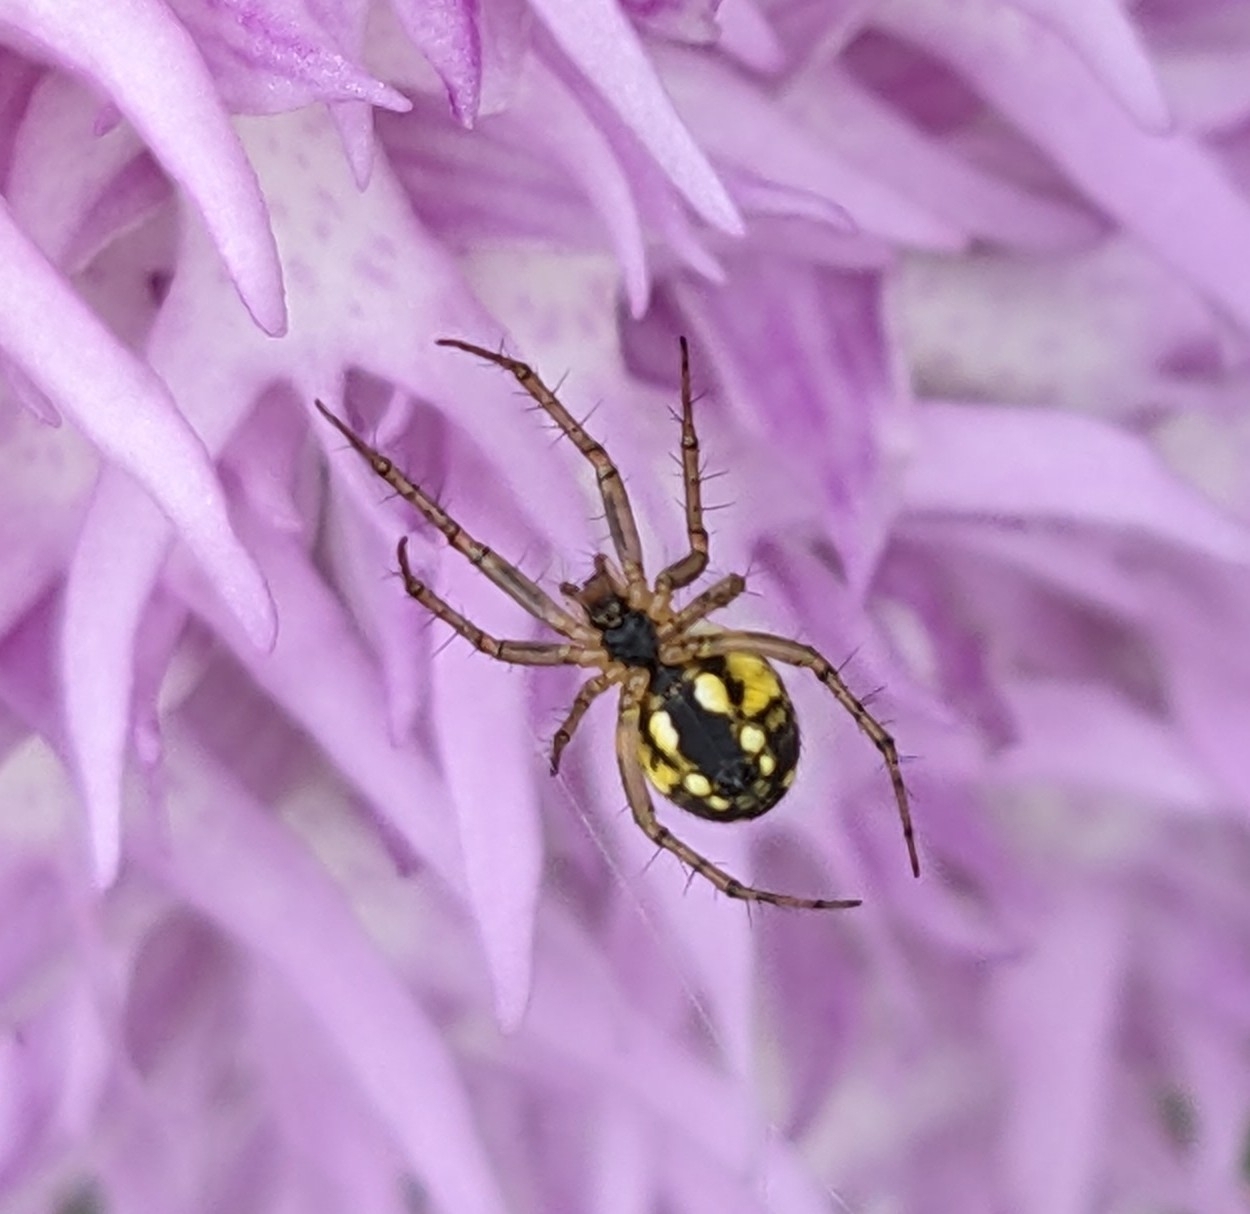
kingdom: Animalia
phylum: Arthropoda
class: Arachnida
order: Araneae
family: Araneidae
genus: Mangora
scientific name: Mangora acalypha
